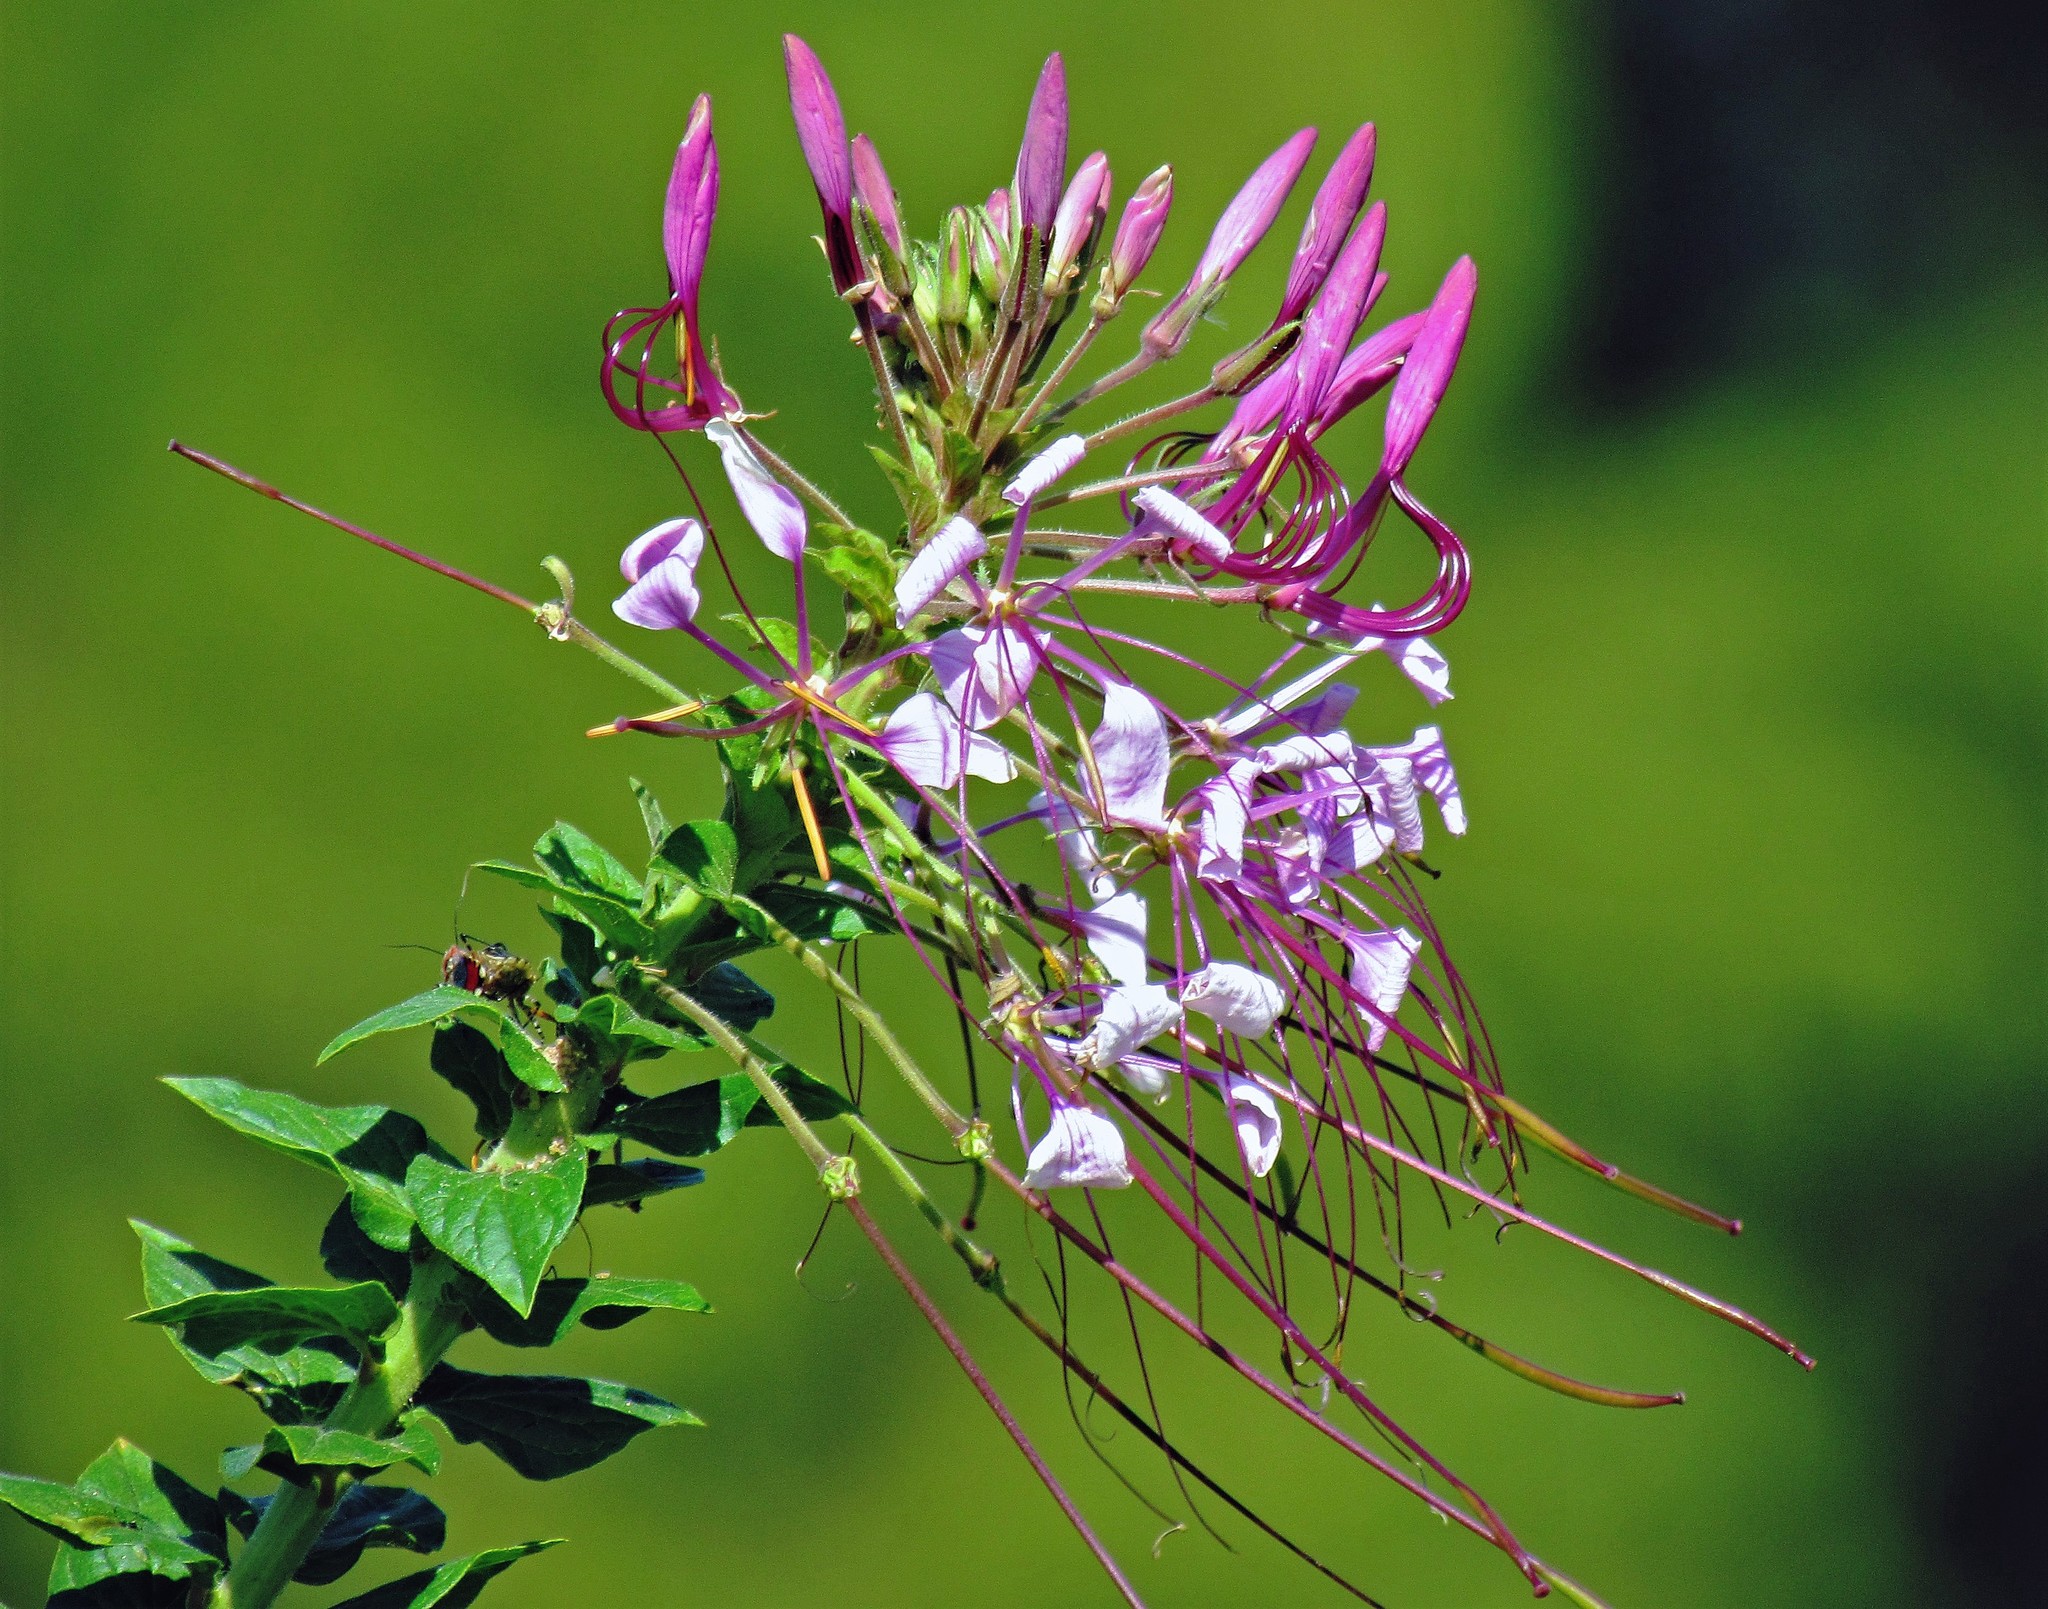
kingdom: Plantae
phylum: Tracheophyta
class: Magnoliopsida
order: Brassicales
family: Cleomaceae
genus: Tarenaya
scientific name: Tarenaya houtteana
